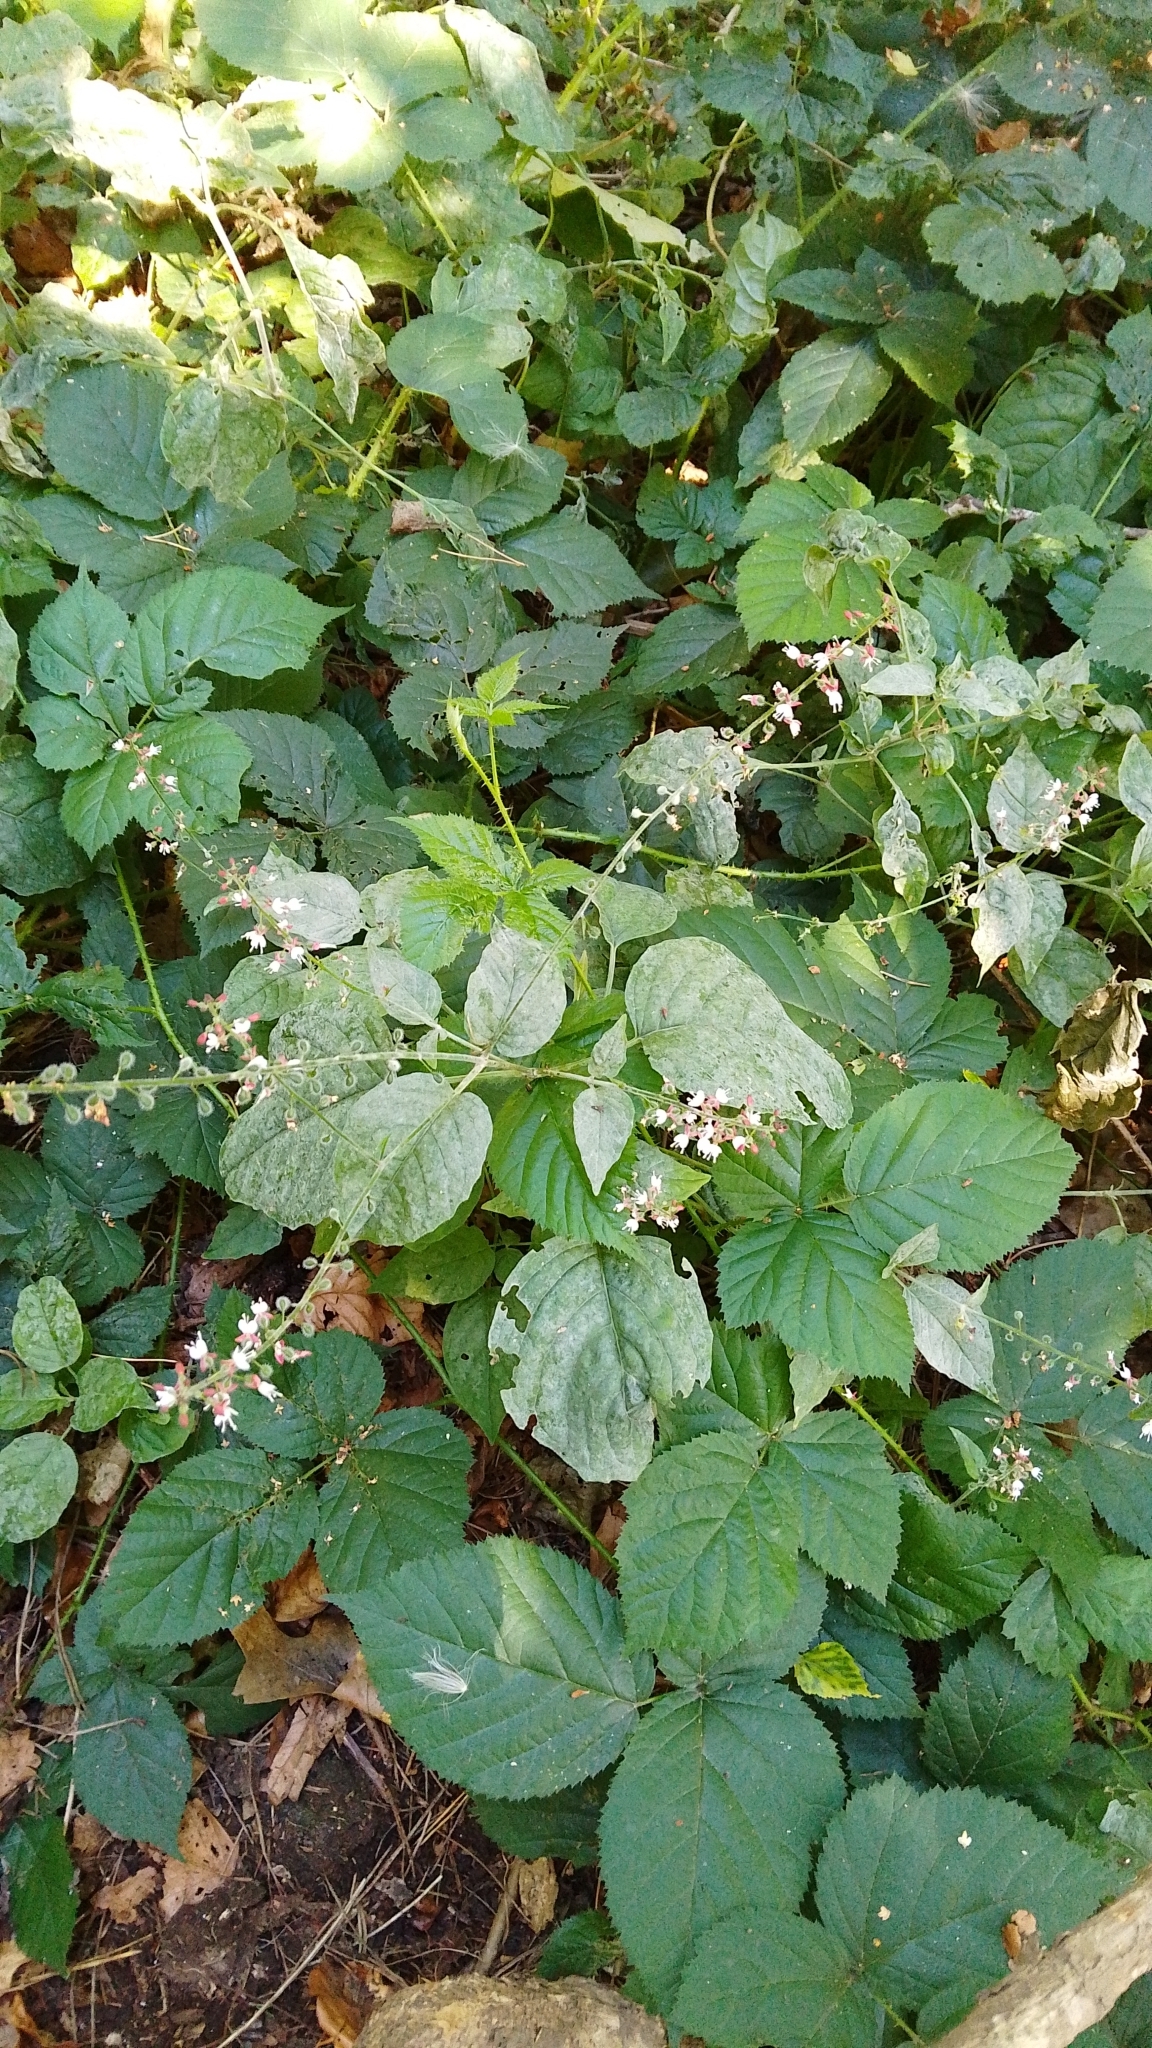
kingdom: Plantae
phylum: Tracheophyta
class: Magnoliopsida
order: Myrtales
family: Onagraceae
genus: Circaea
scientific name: Circaea lutetiana
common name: Enchanter's-nightshade
